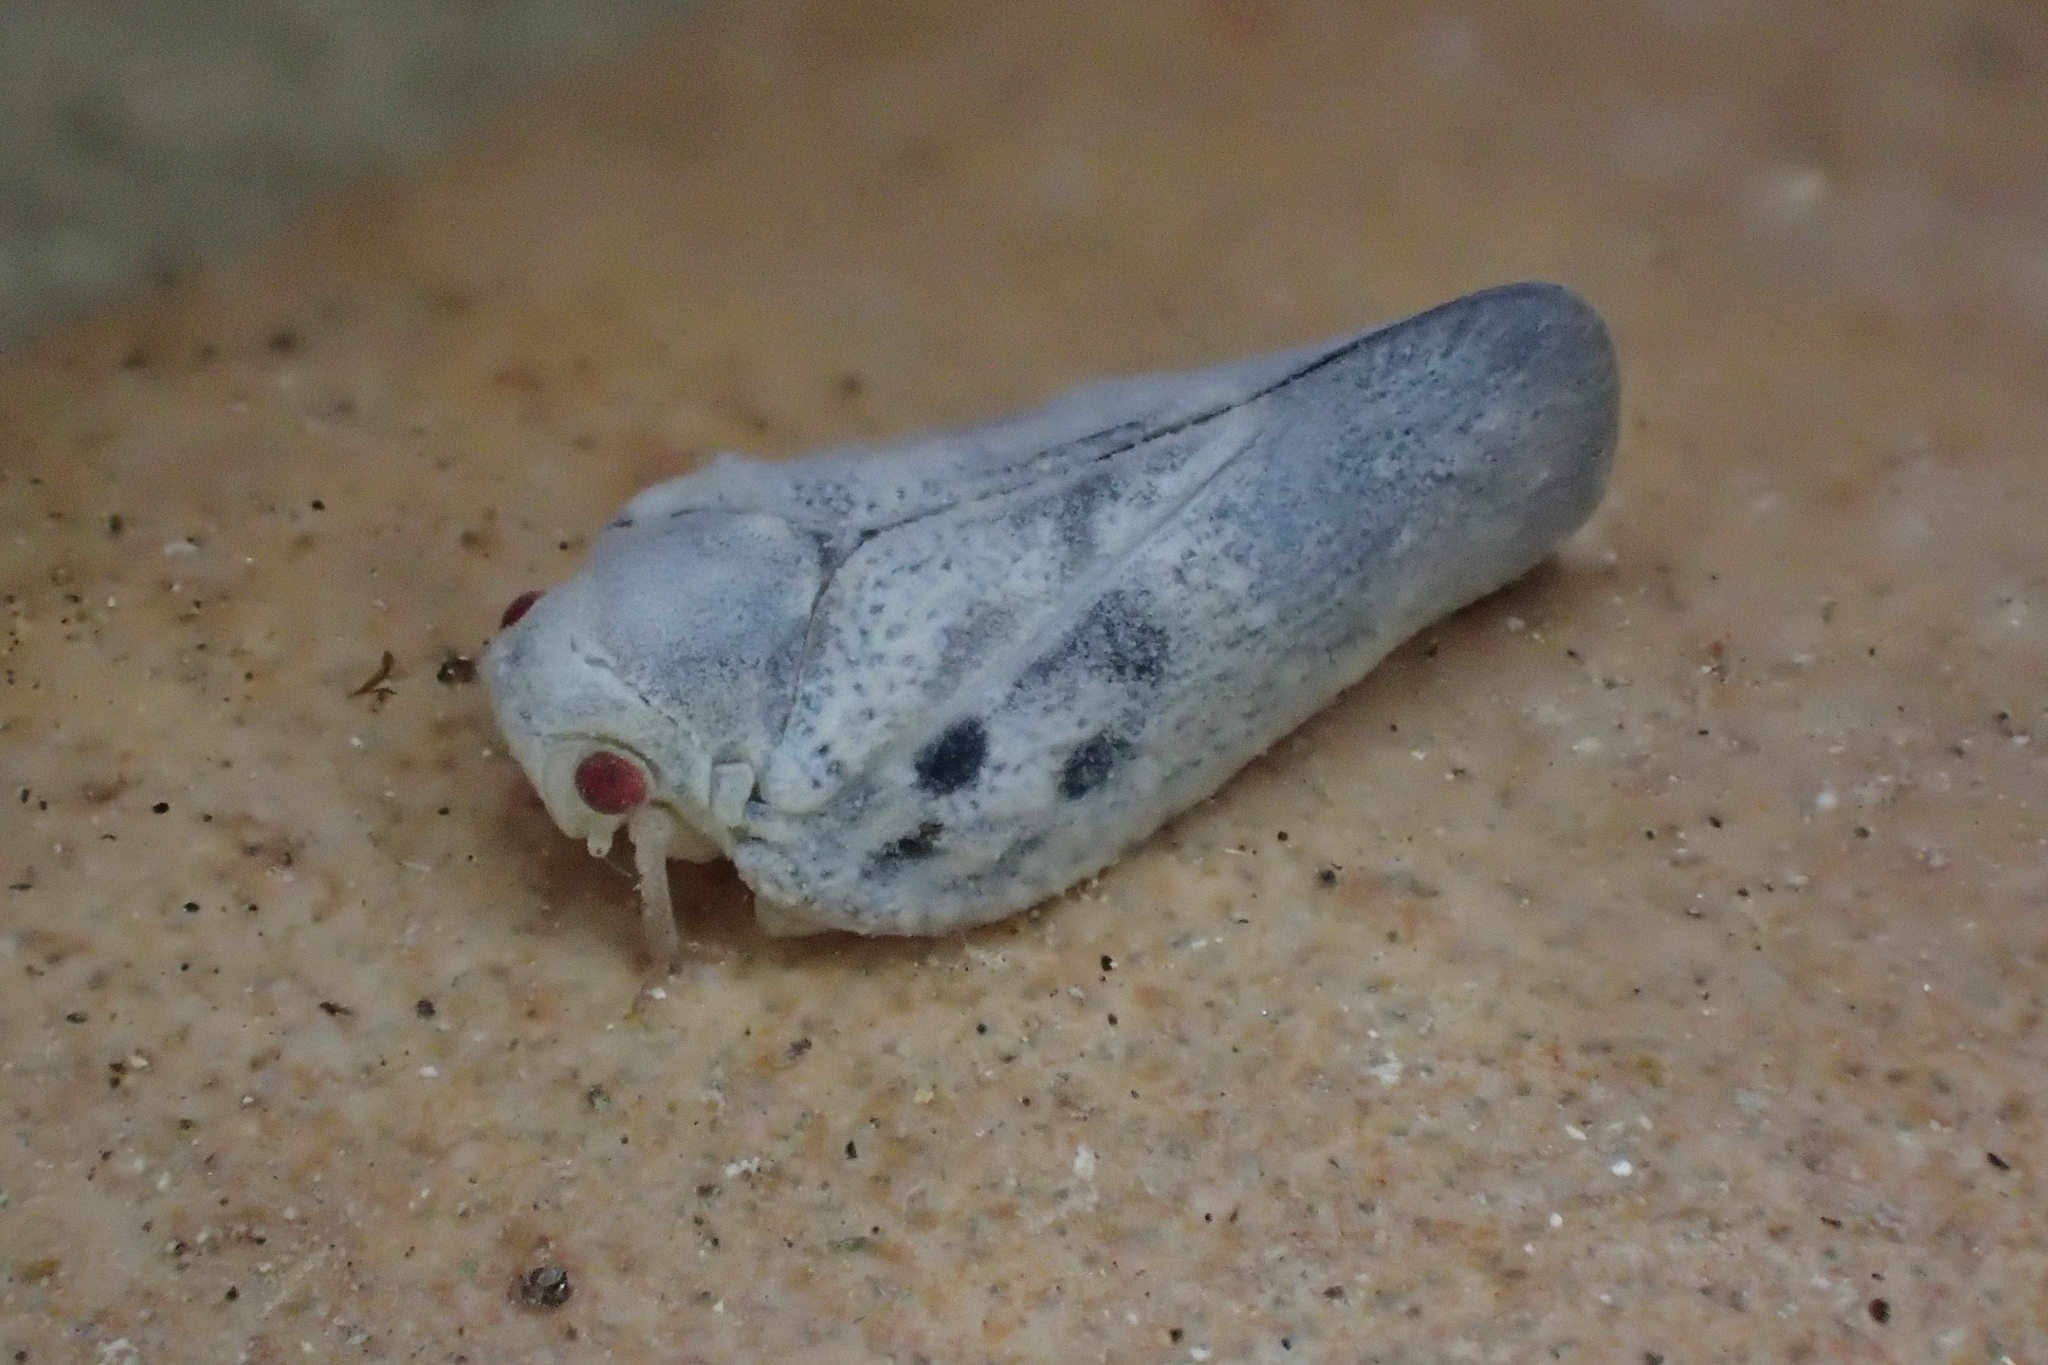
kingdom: Animalia
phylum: Arthropoda
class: Insecta
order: Hemiptera
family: Flatidae
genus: Metcalfa
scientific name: Metcalfa pruinosa
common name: Citrus flatid planthopper
